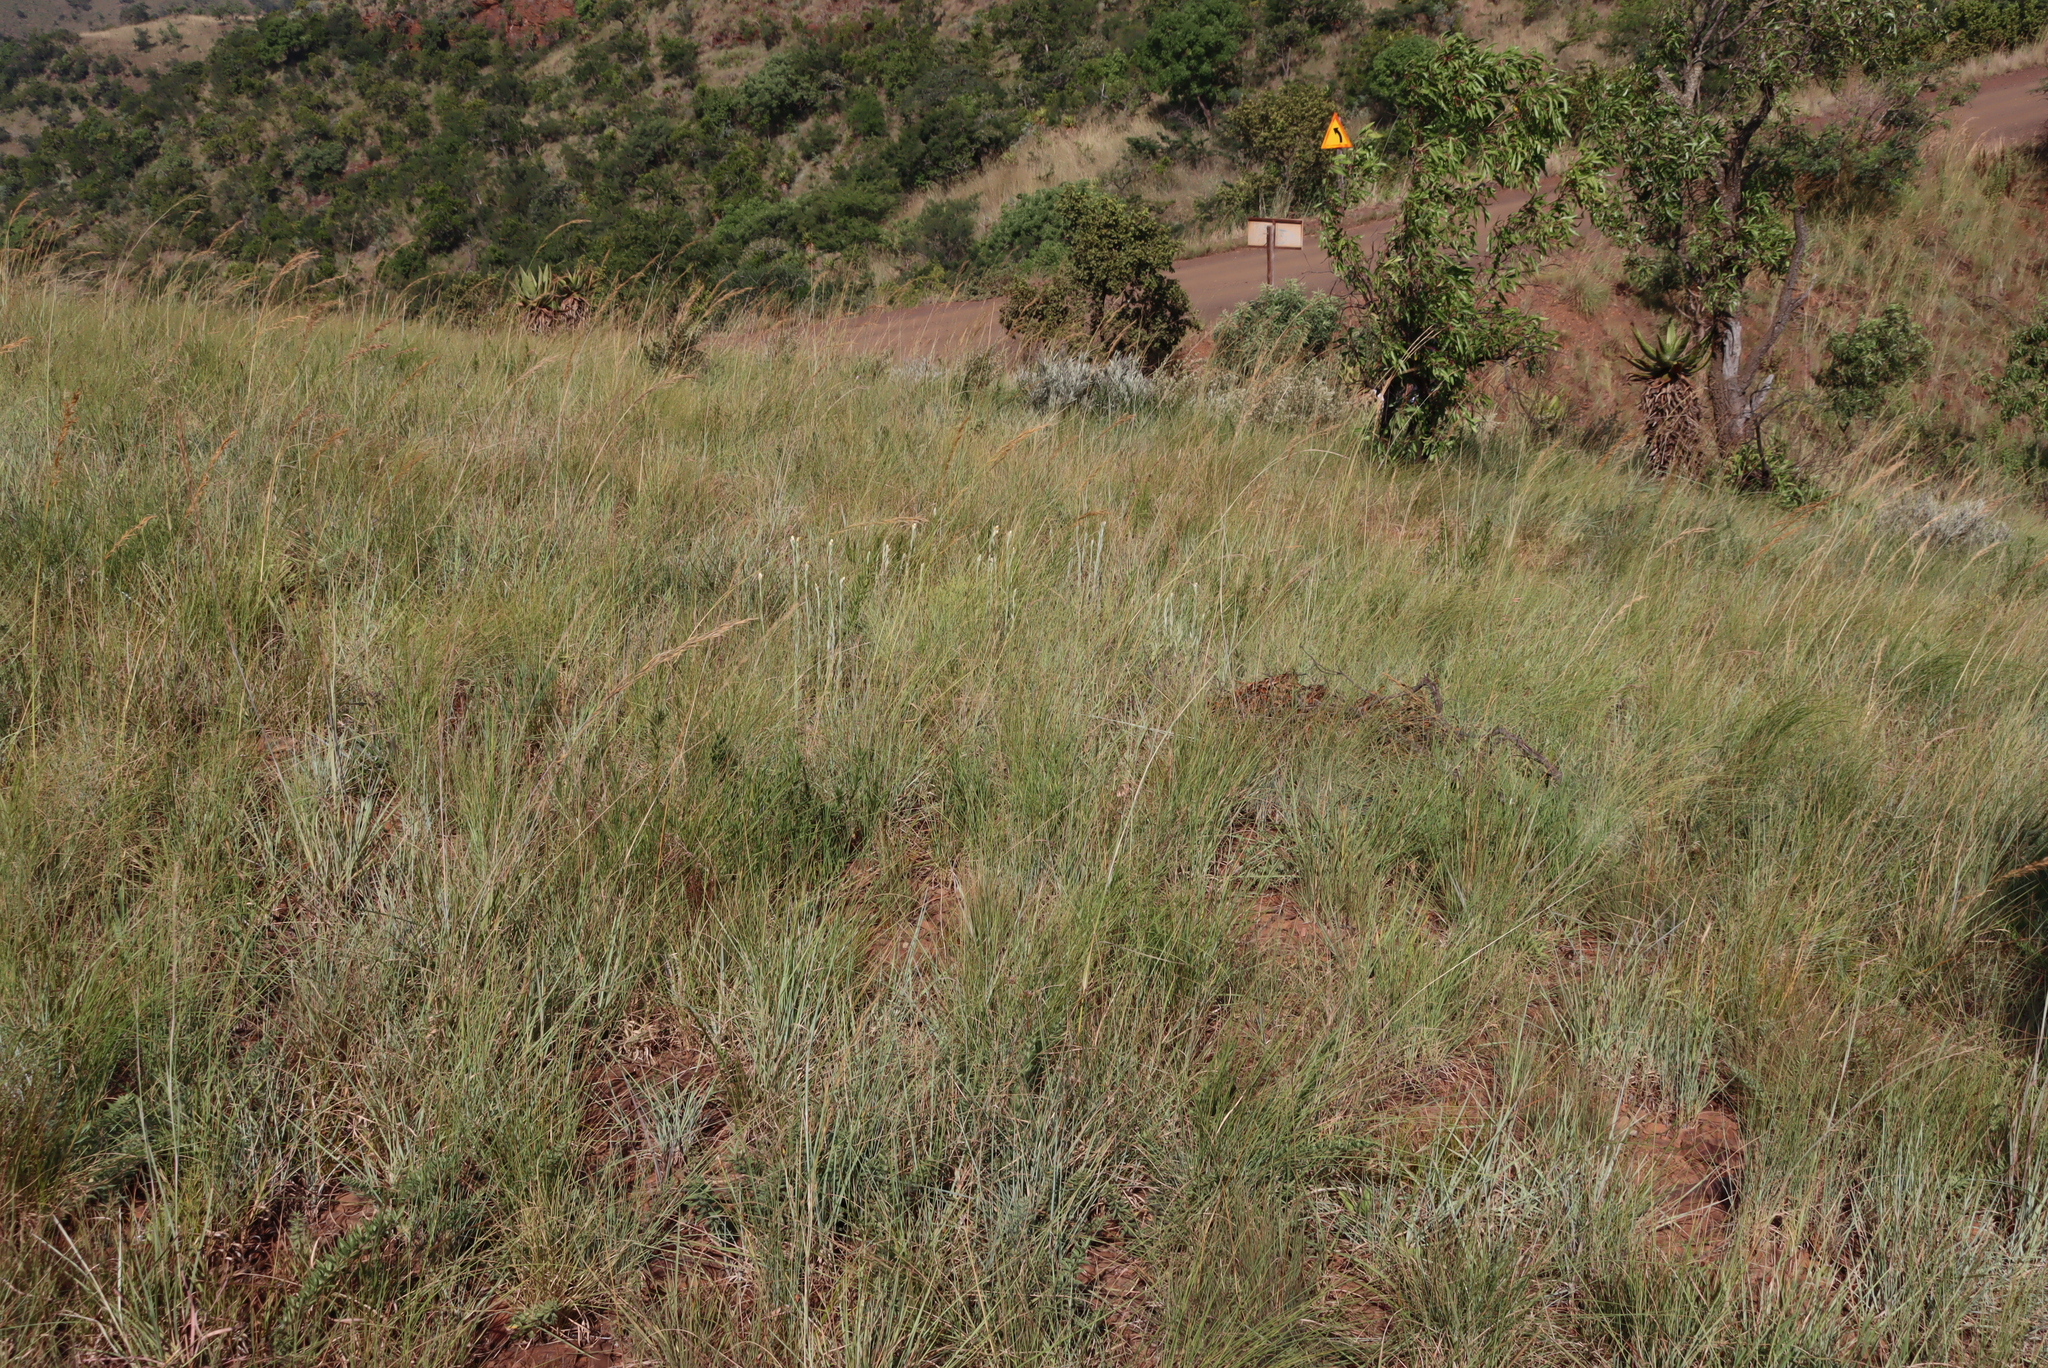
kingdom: Plantae
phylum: Tracheophyta
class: Magnoliopsida
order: Asterales
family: Asteraceae
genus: Helichrysum
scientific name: Helichrysum mixtum
